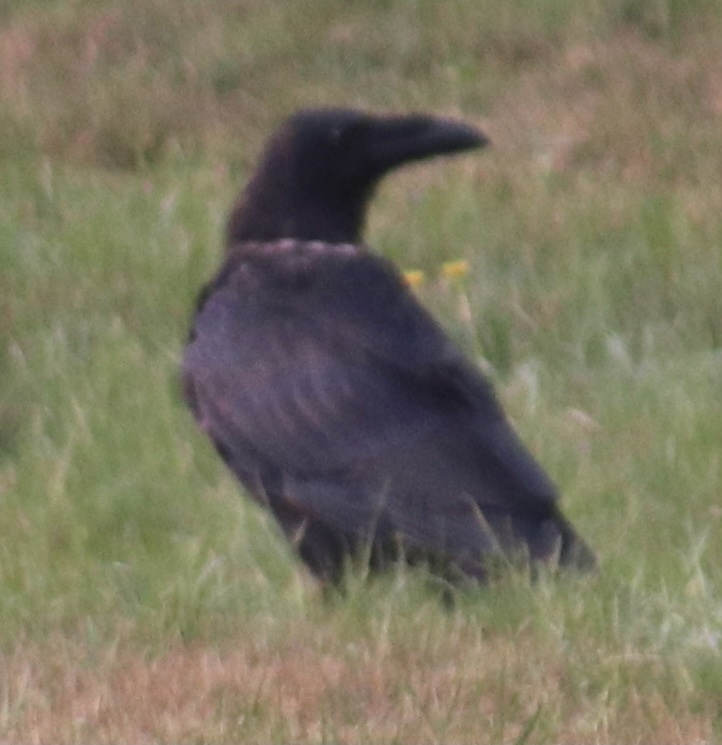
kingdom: Animalia
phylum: Chordata
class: Aves
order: Passeriformes
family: Corvidae
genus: Corvus
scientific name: Corvus corax
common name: Common raven
